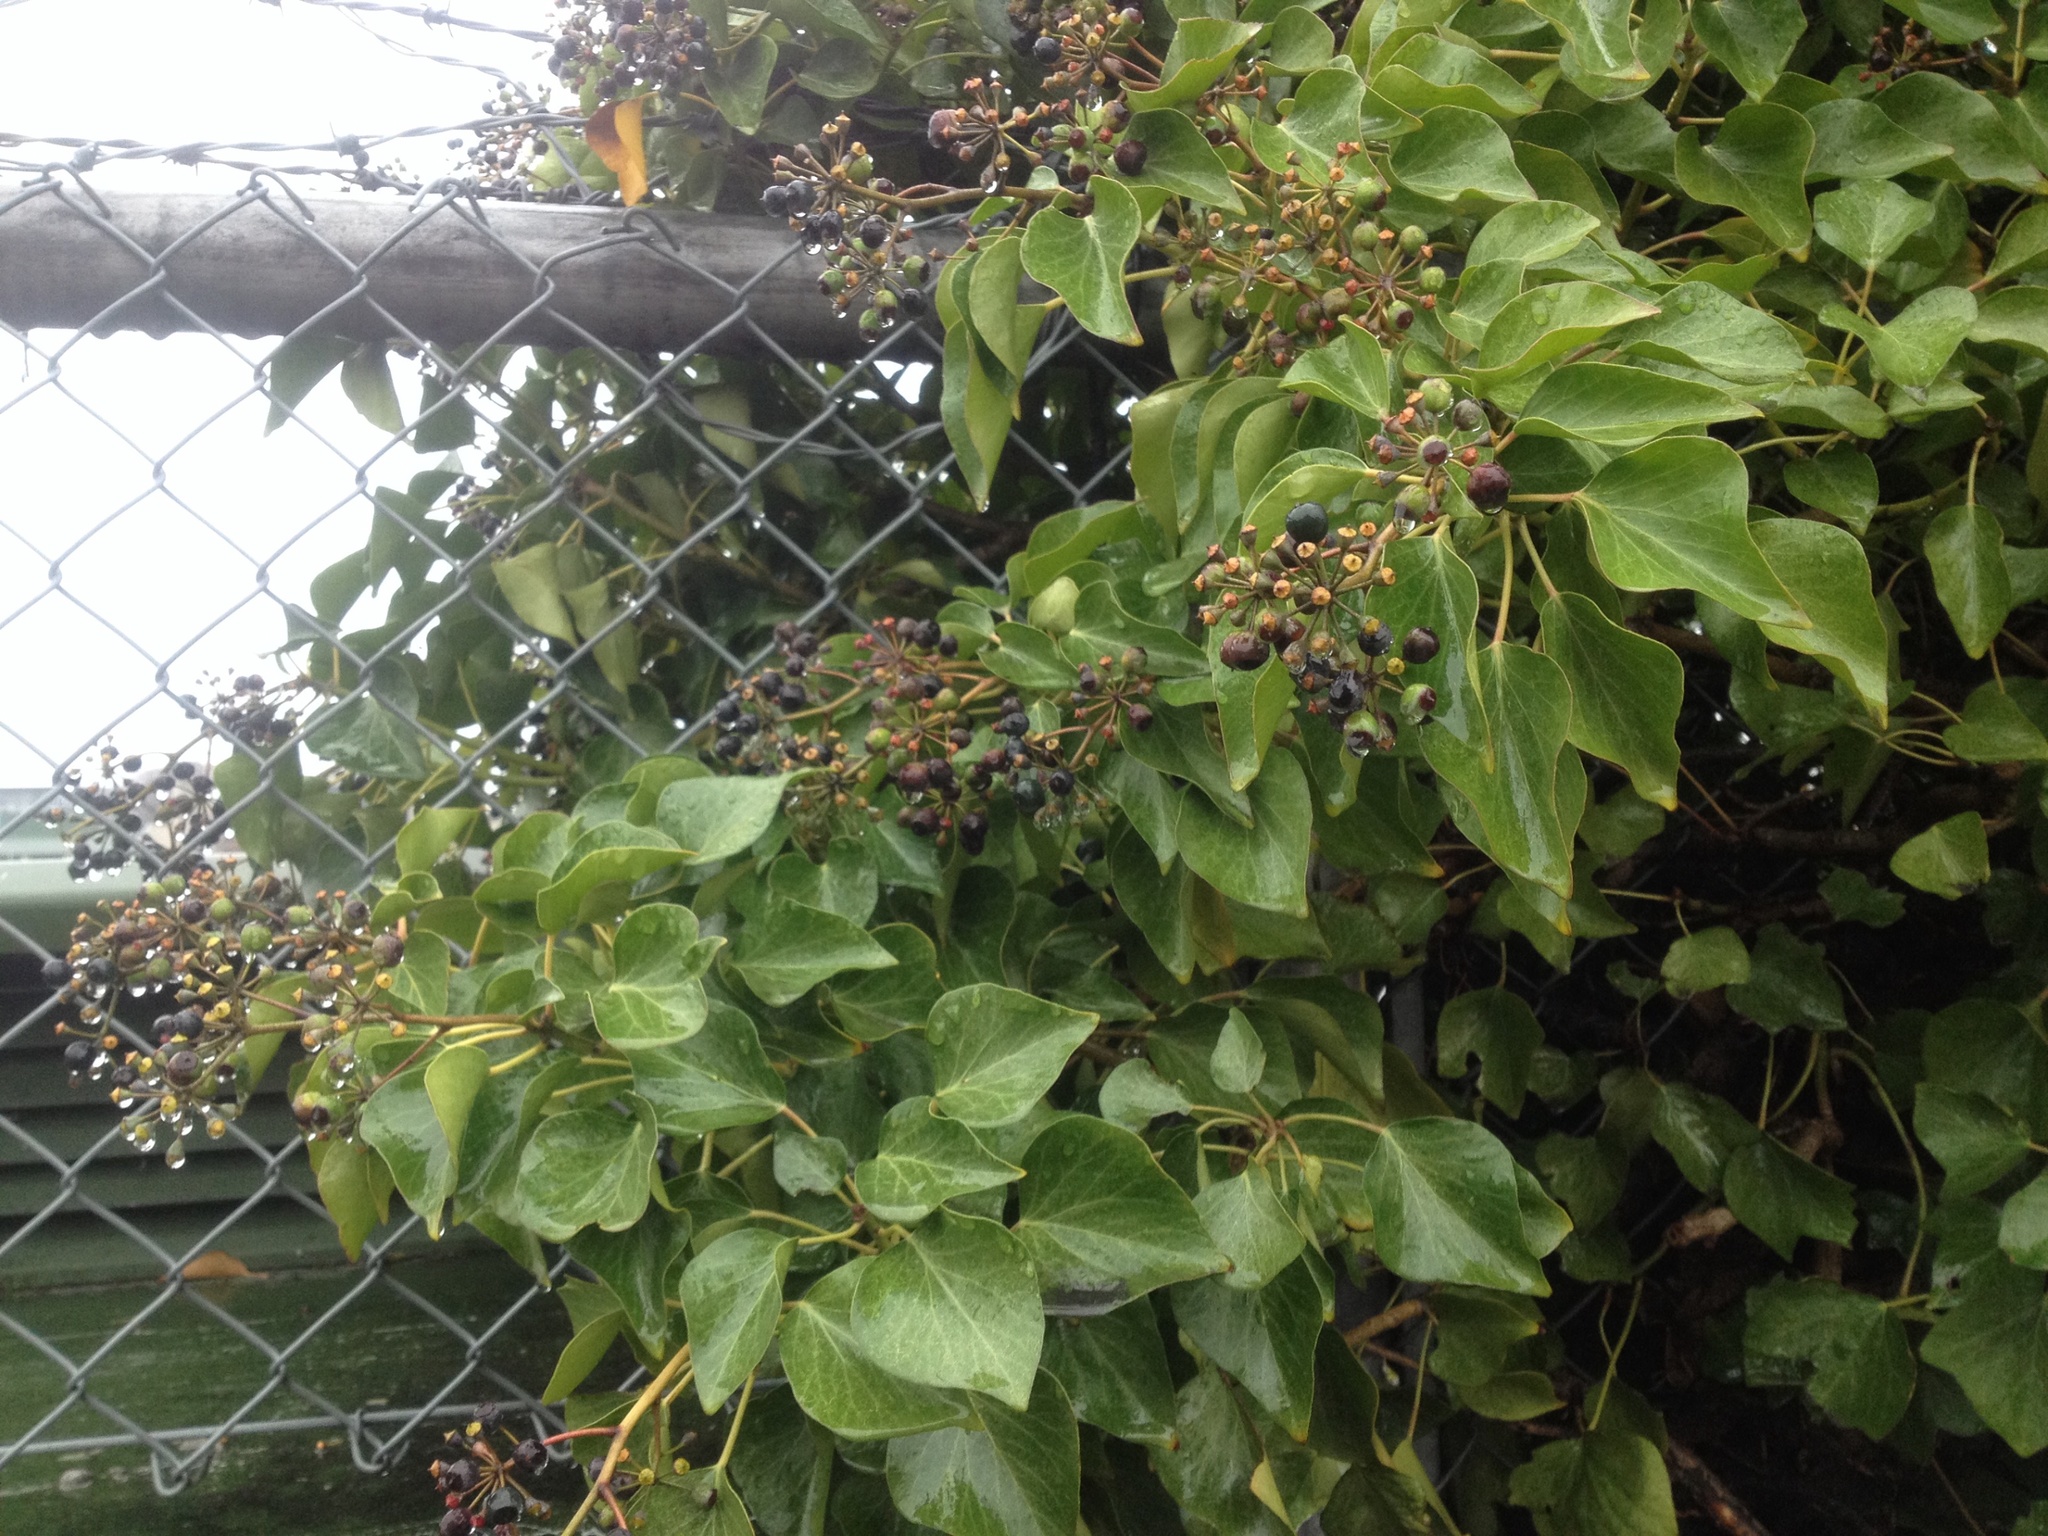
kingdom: Plantae
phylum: Tracheophyta
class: Magnoliopsida
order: Apiales
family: Araliaceae
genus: Hedera
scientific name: Hedera helix
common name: Ivy
